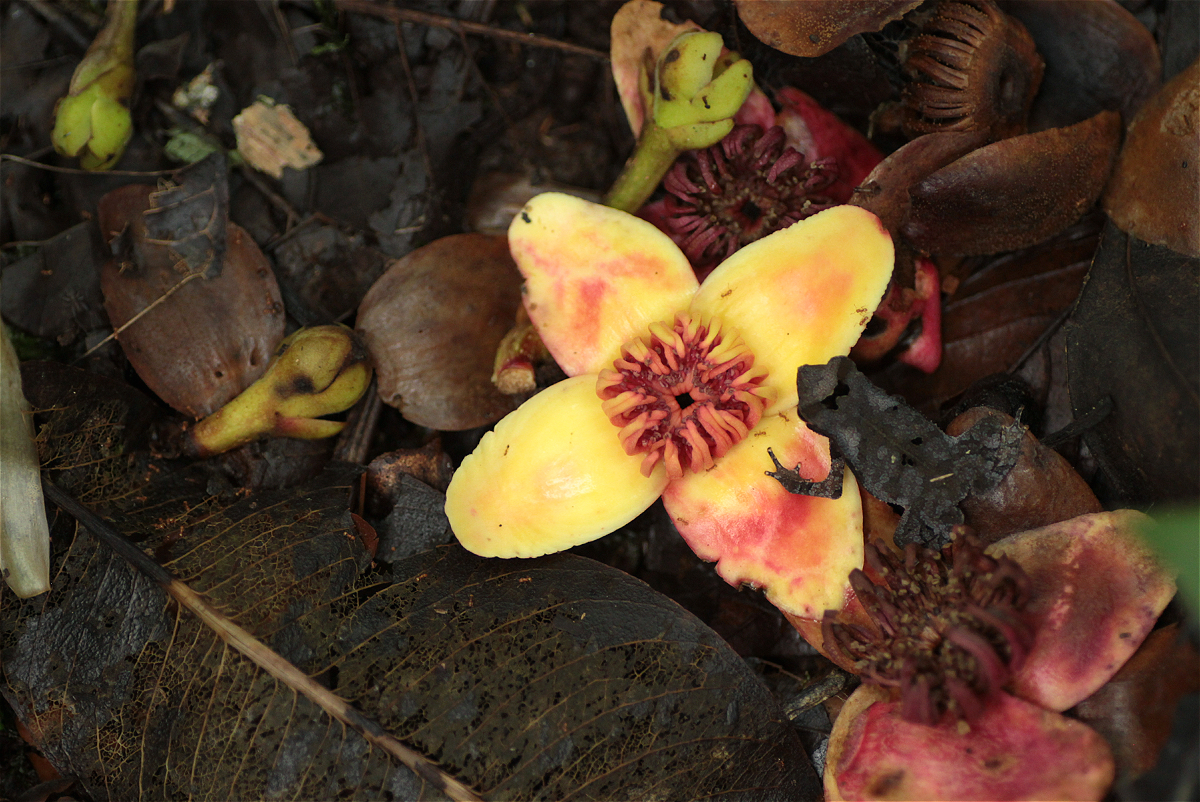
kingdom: Animalia
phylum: Chordata
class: Amphibia
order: Anura
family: Bufonidae
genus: Rhinella
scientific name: Rhinella margaritifera
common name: Mitred toad
